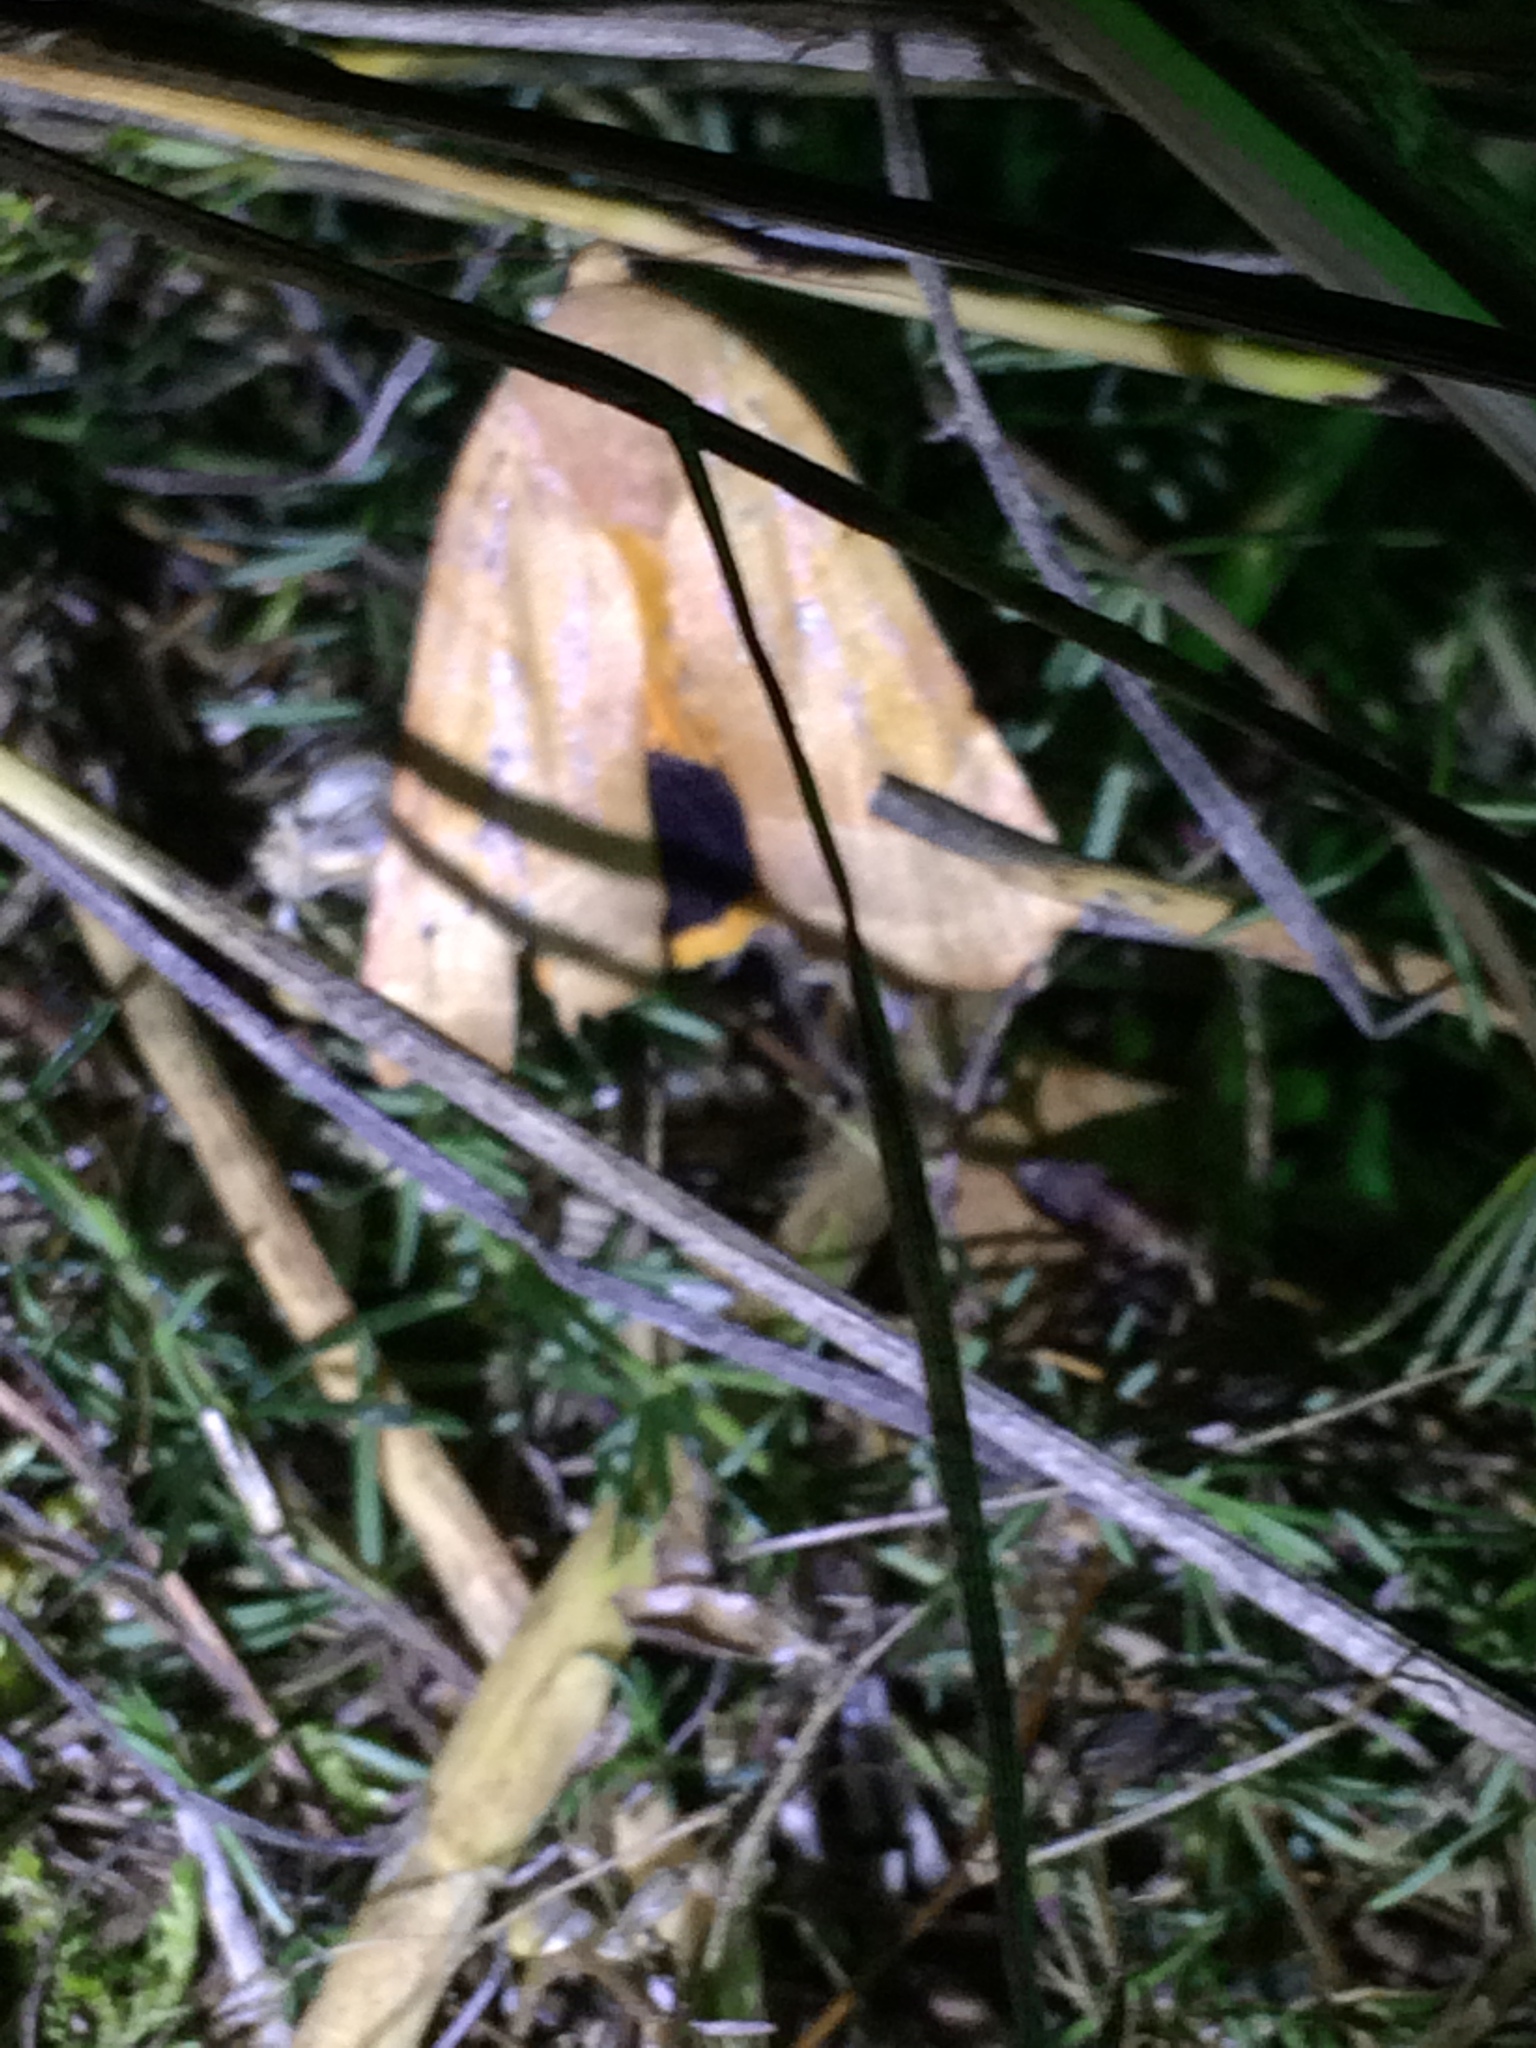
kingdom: Animalia
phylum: Arthropoda
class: Insecta
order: Lepidoptera
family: Noctuidae
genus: Noctua
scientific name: Noctua fimbriata
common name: Broad-bordered yellow underwing
